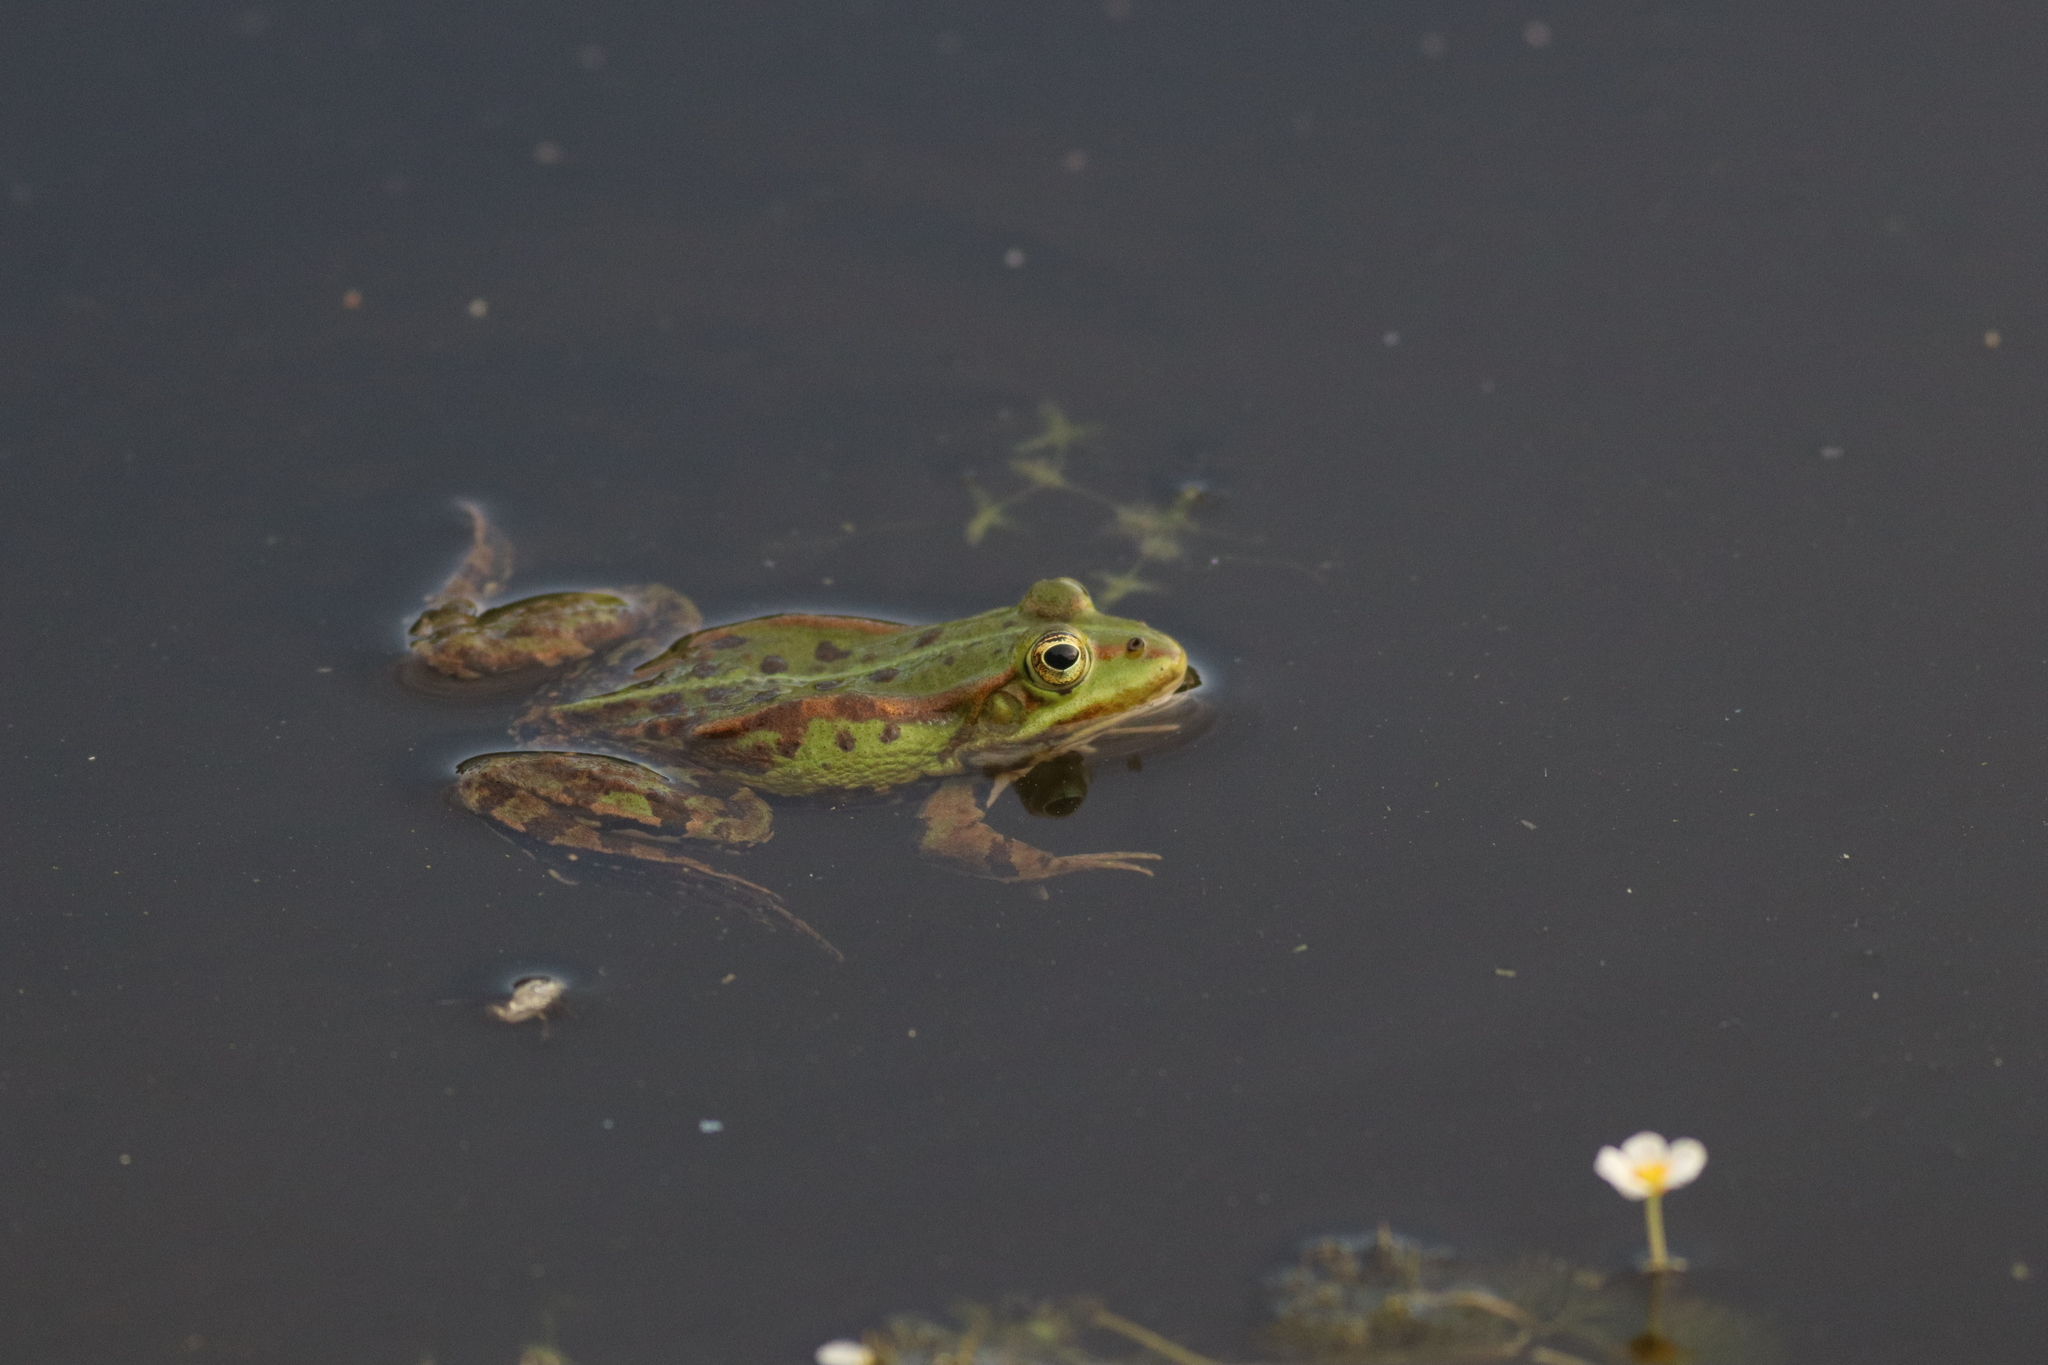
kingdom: Animalia
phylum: Chordata
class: Amphibia
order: Anura
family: Ranidae
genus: Pelophylax
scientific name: Pelophylax
